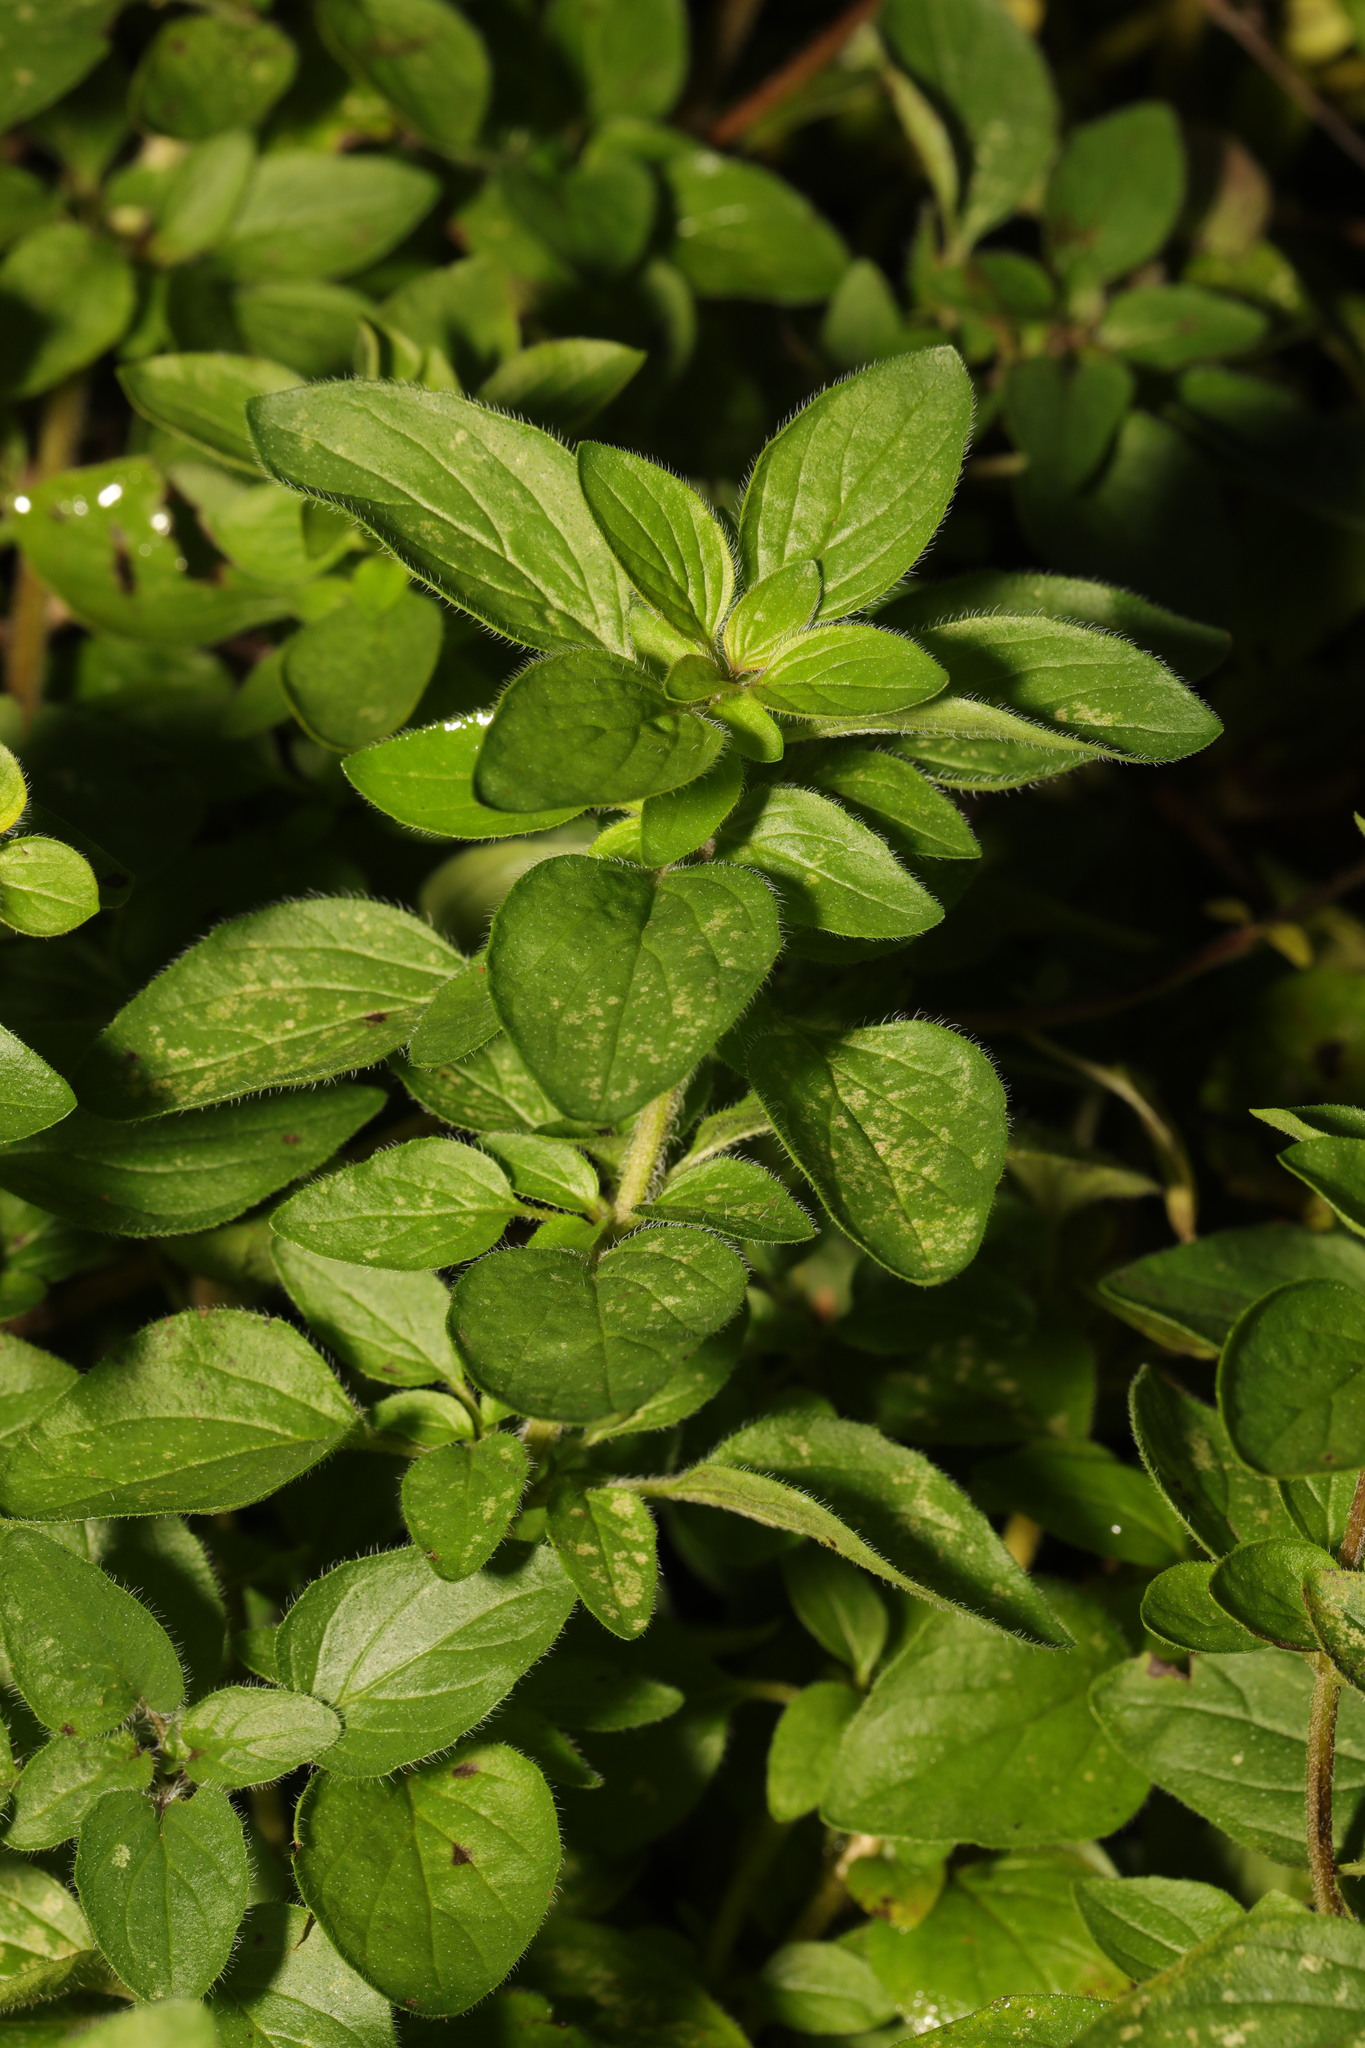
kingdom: Plantae
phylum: Tracheophyta
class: Magnoliopsida
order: Lamiales
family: Lamiaceae
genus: Origanum
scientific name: Origanum vulgare
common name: Wild marjoram
